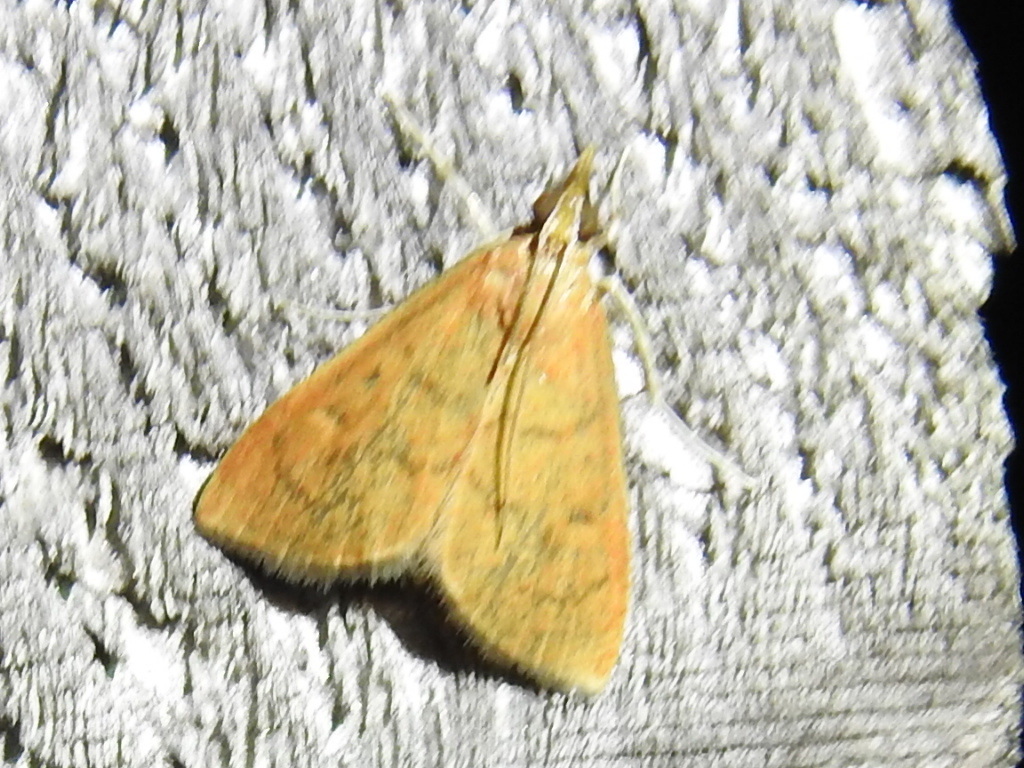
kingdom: Animalia
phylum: Arthropoda
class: Insecta
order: Lepidoptera
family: Crambidae
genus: Udea
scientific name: Udea rubigalis
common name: Celery leaftier moth
